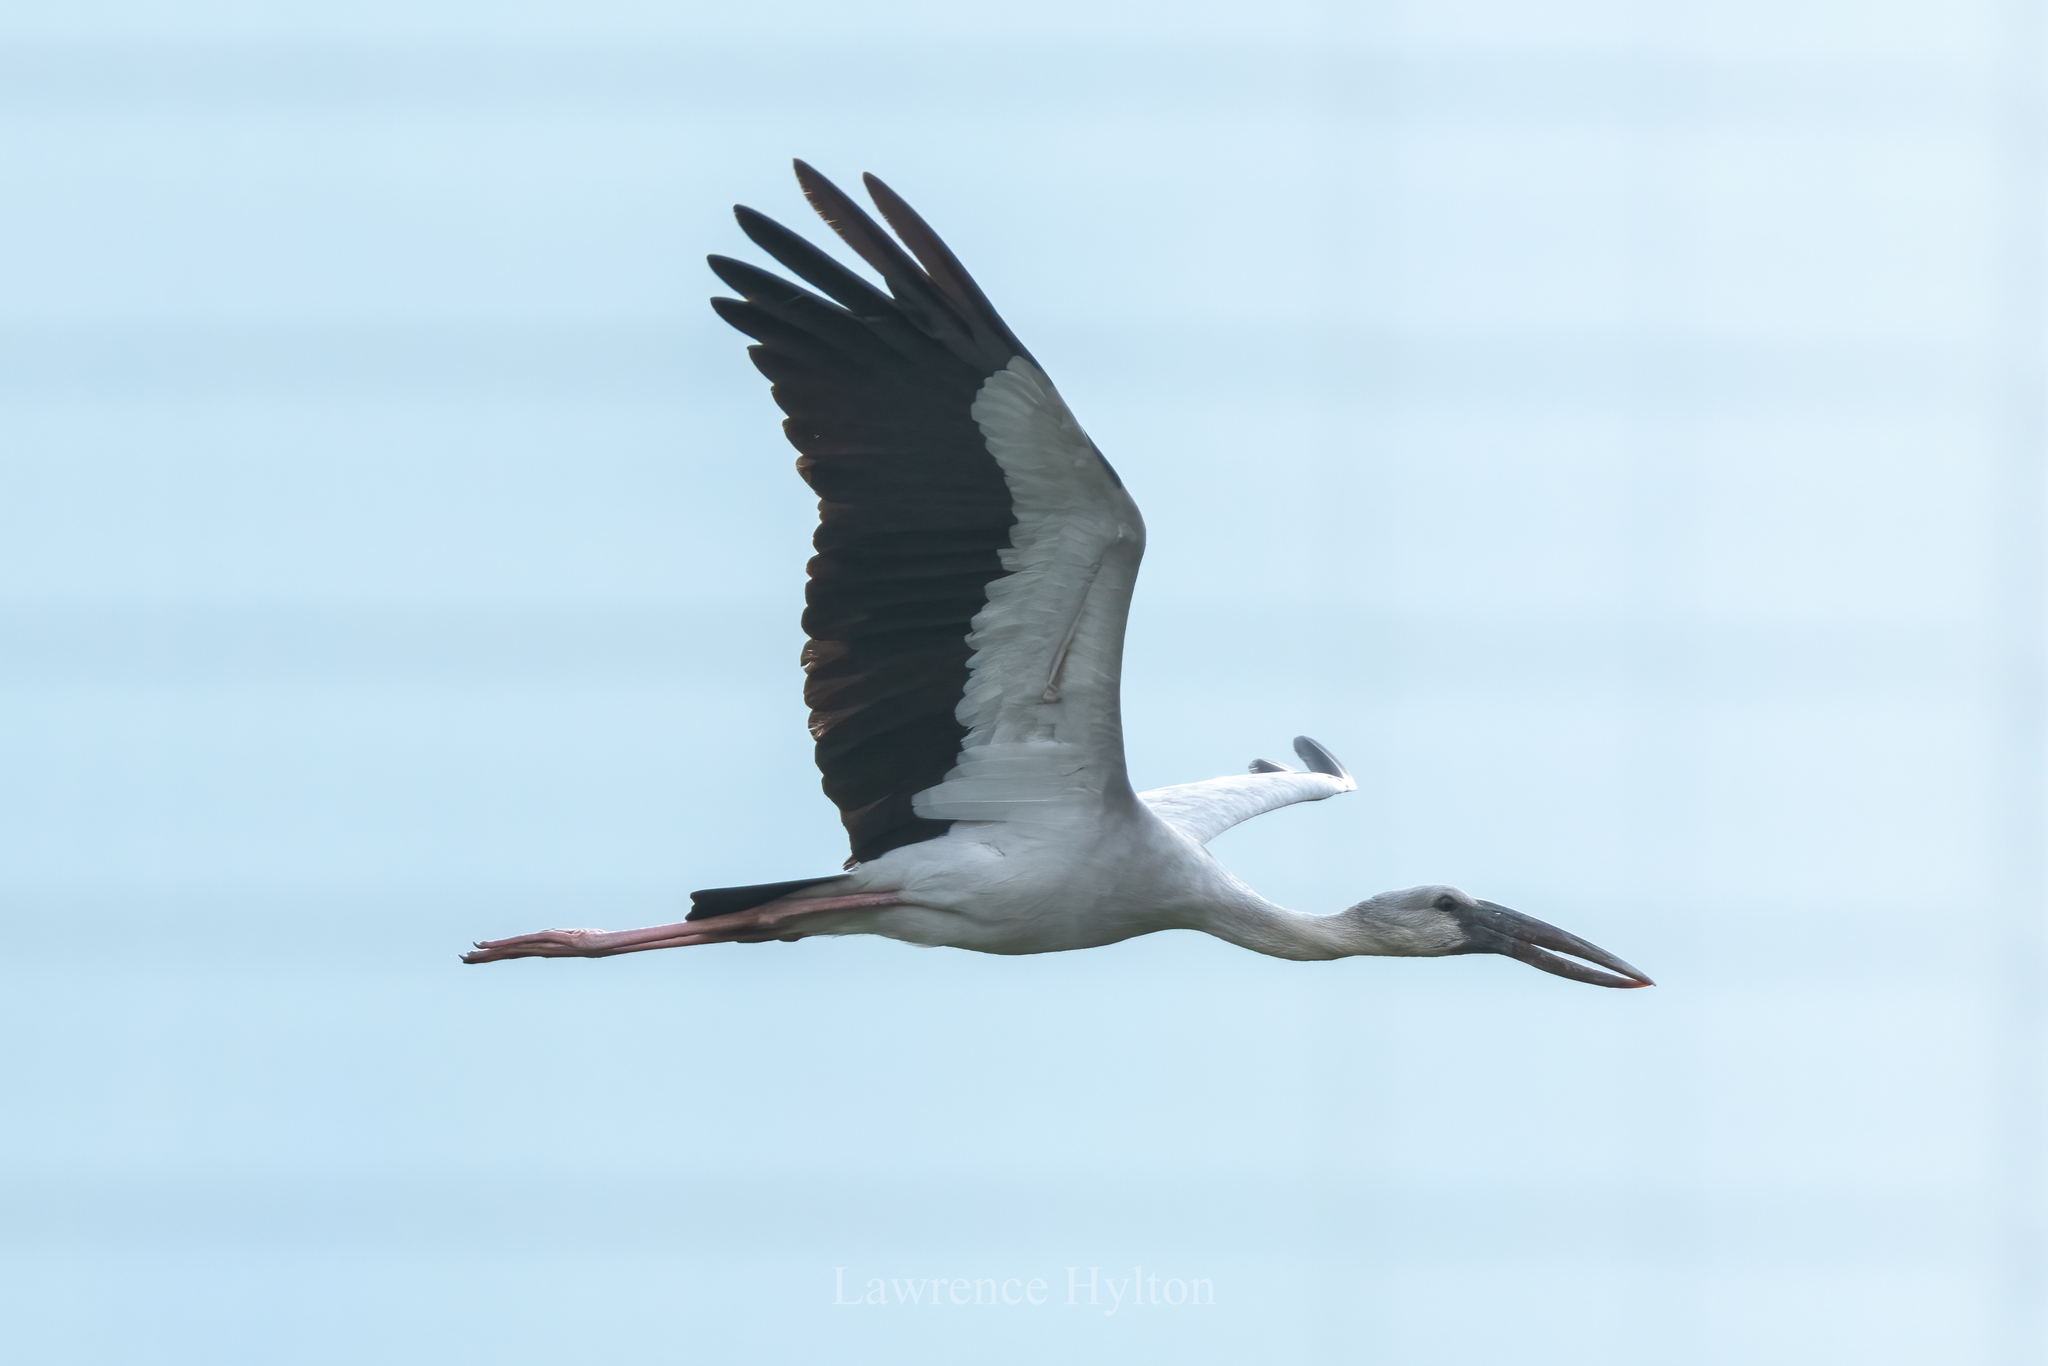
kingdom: Animalia
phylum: Chordata
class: Aves
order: Ciconiiformes
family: Ciconiidae
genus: Anastomus
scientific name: Anastomus oscitans
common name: Asian openbill
